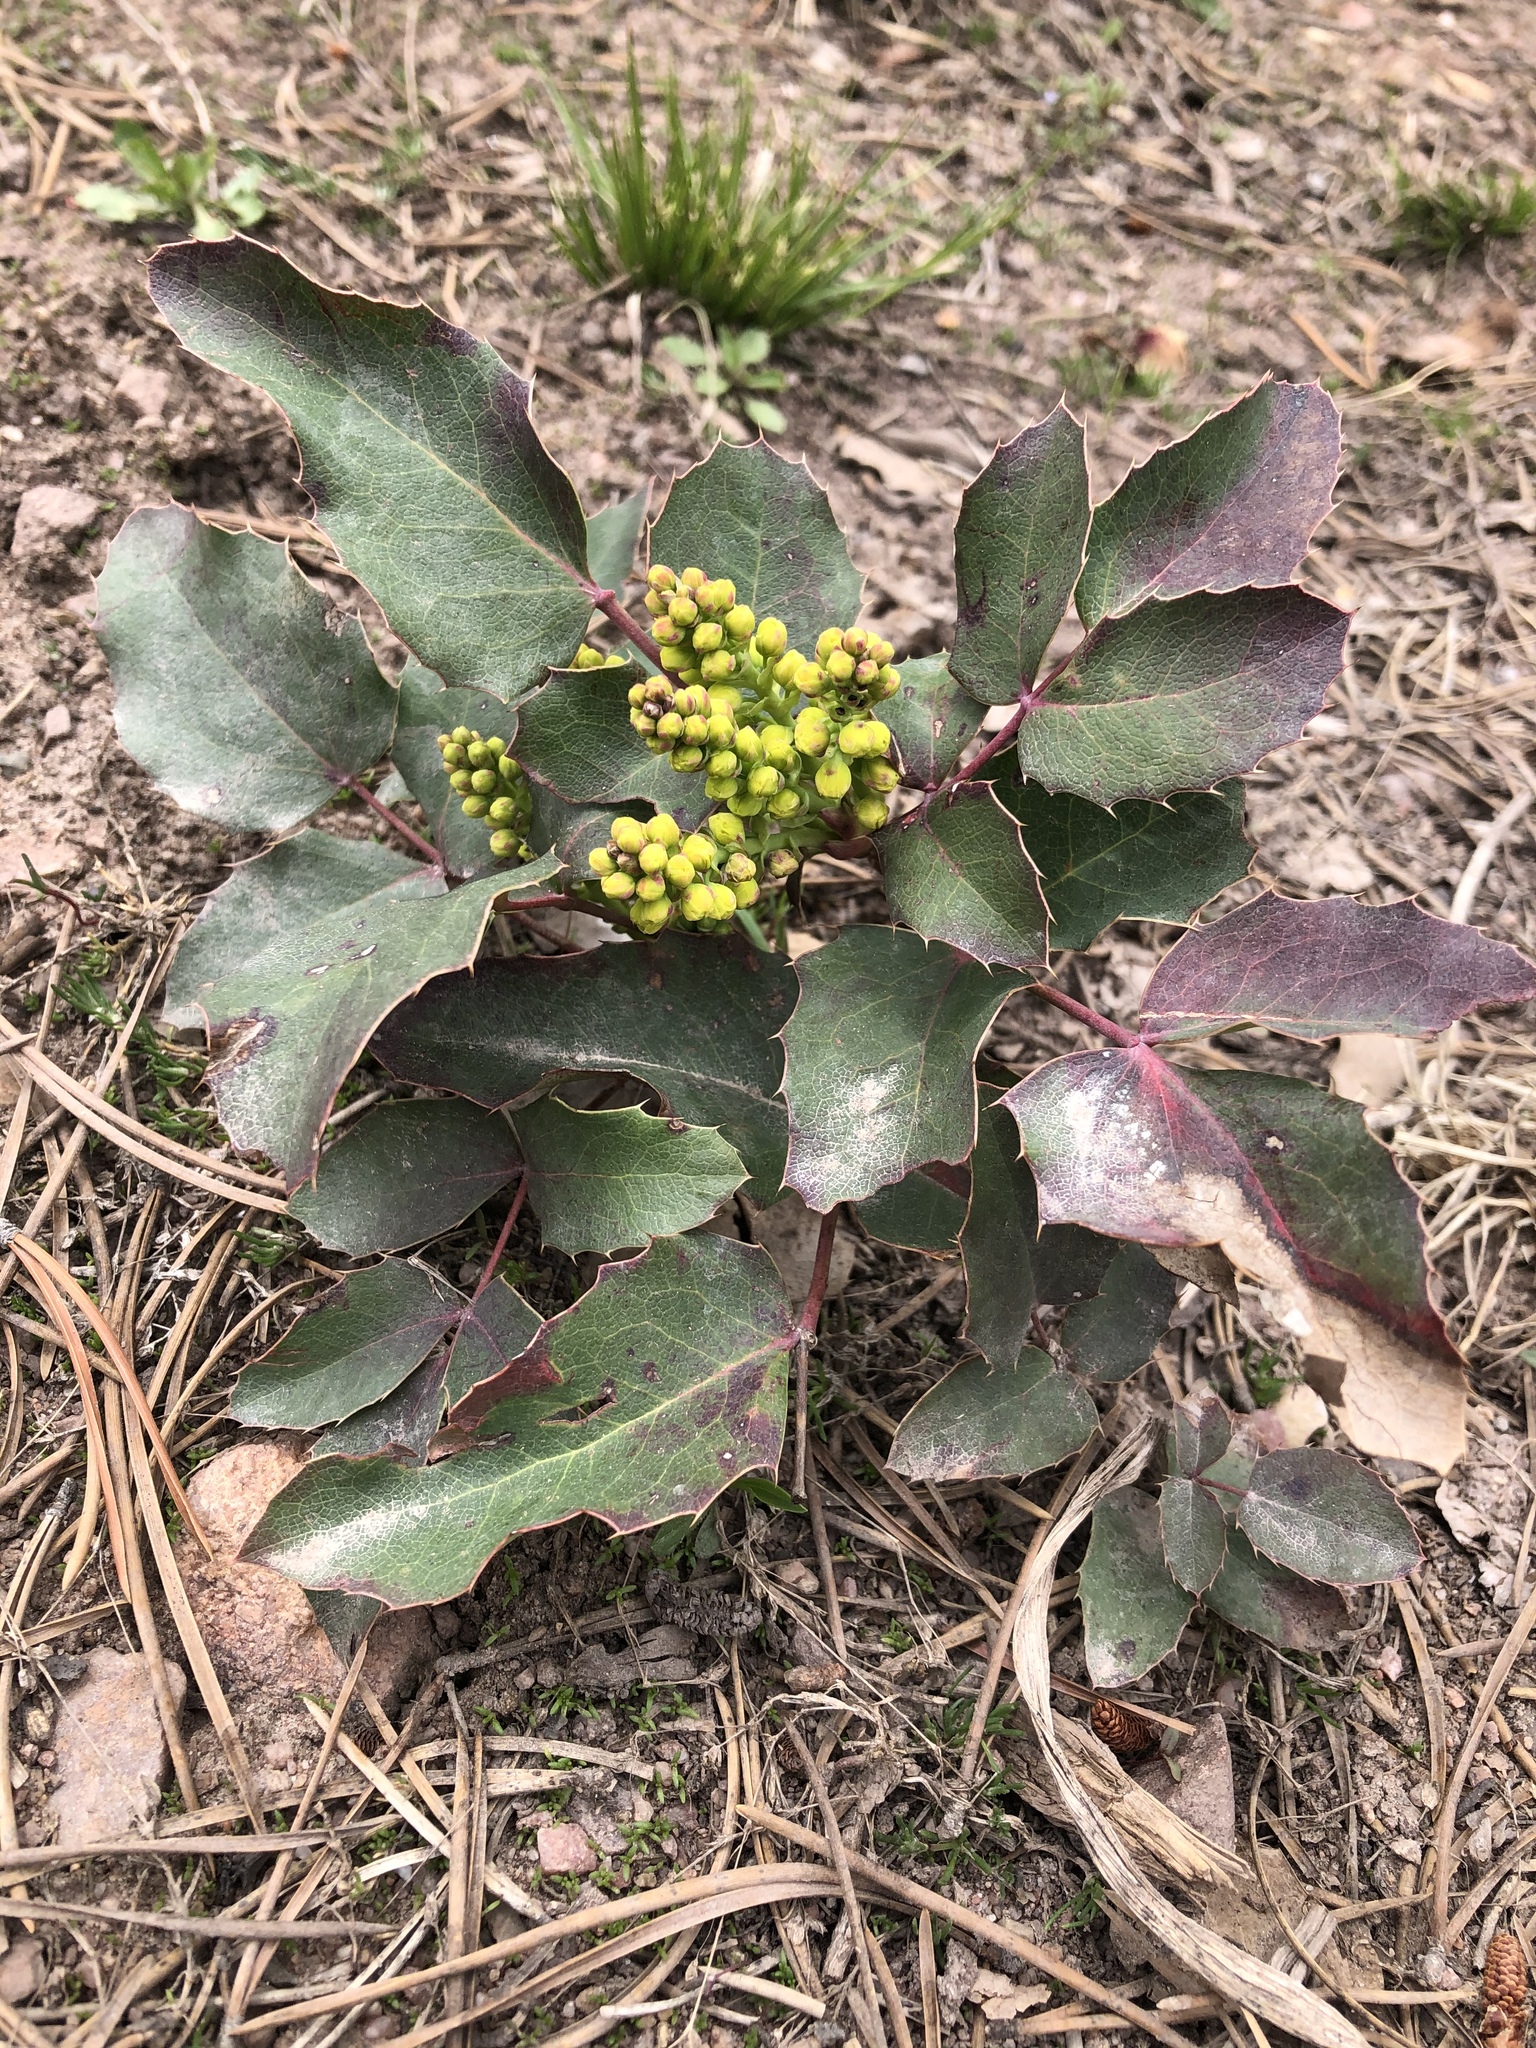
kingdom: Plantae
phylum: Tracheophyta
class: Magnoliopsida
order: Ranunculales
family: Berberidaceae
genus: Mahonia
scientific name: Mahonia repens
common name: Creeping oregon-grape
